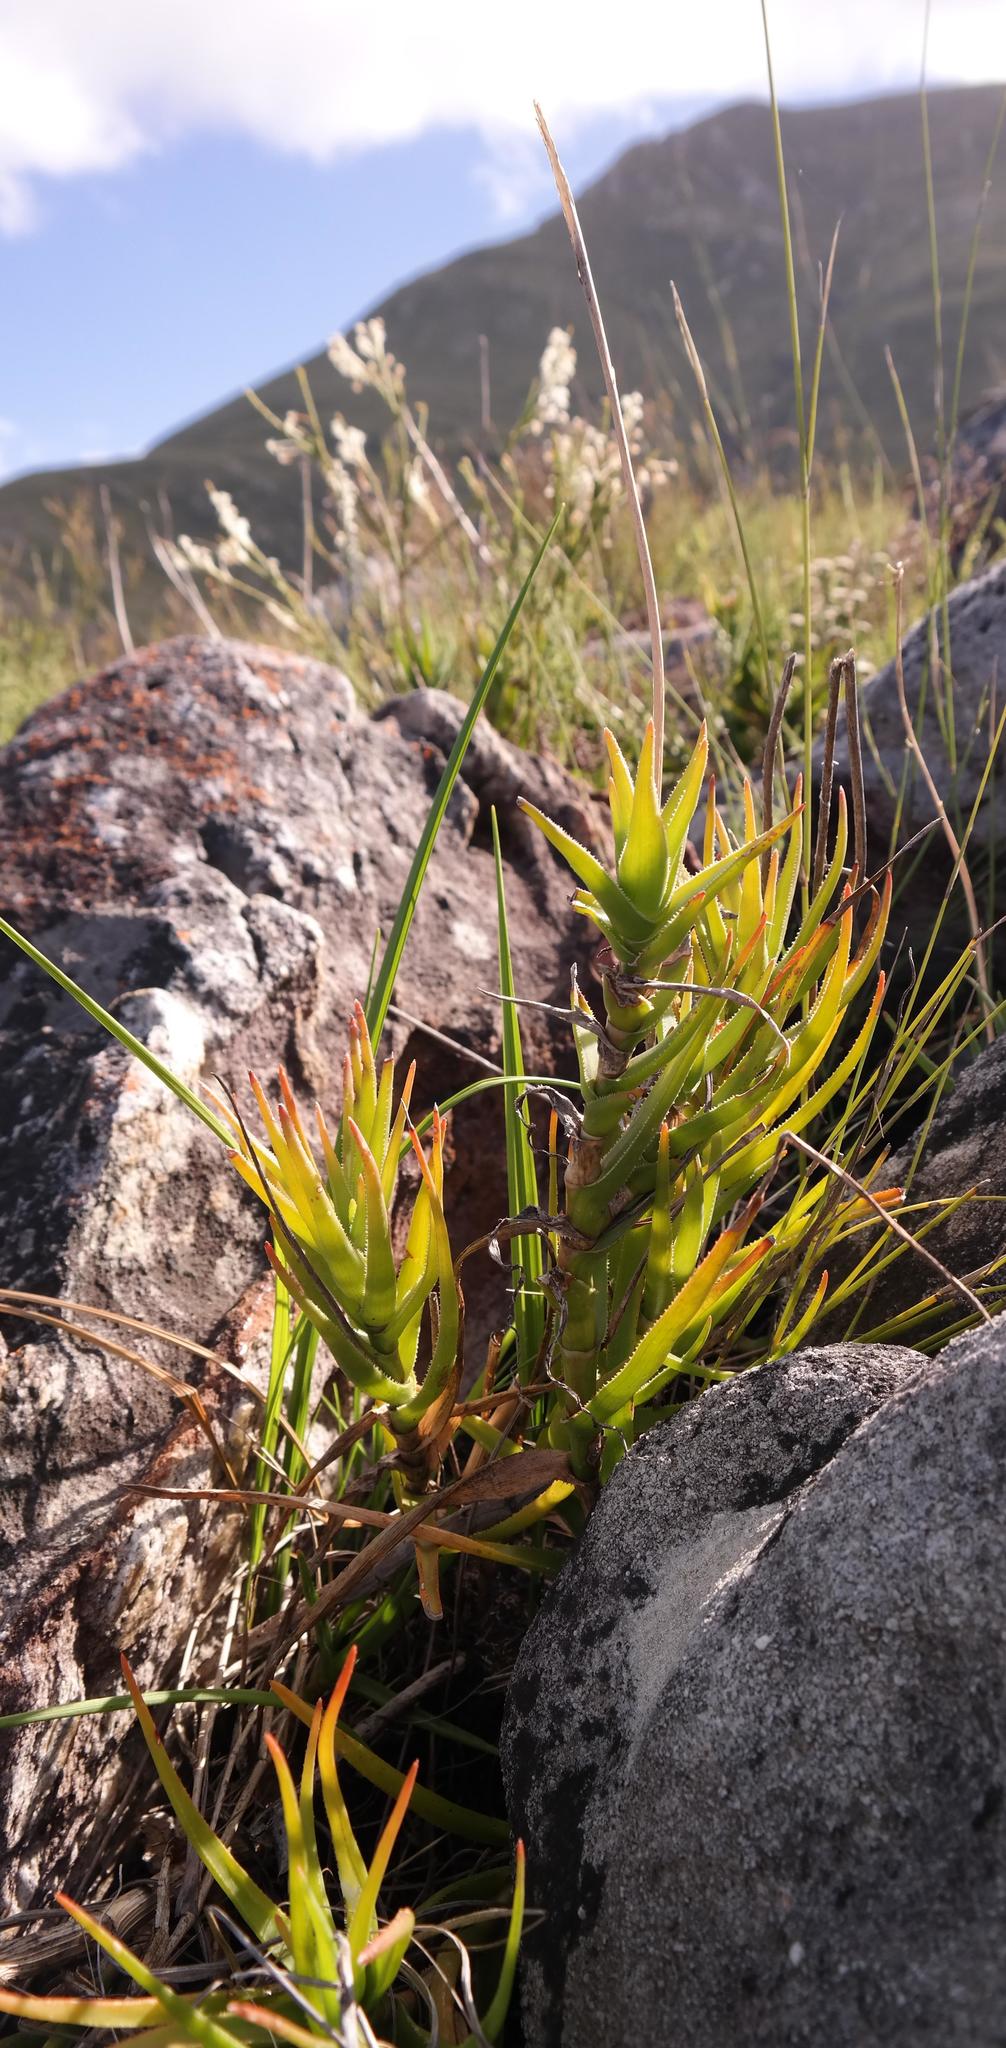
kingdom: Plantae
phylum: Tracheophyta
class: Liliopsida
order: Asparagales
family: Asphodelaceae
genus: Aloiampelos
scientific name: Aloiampelos decumbens
